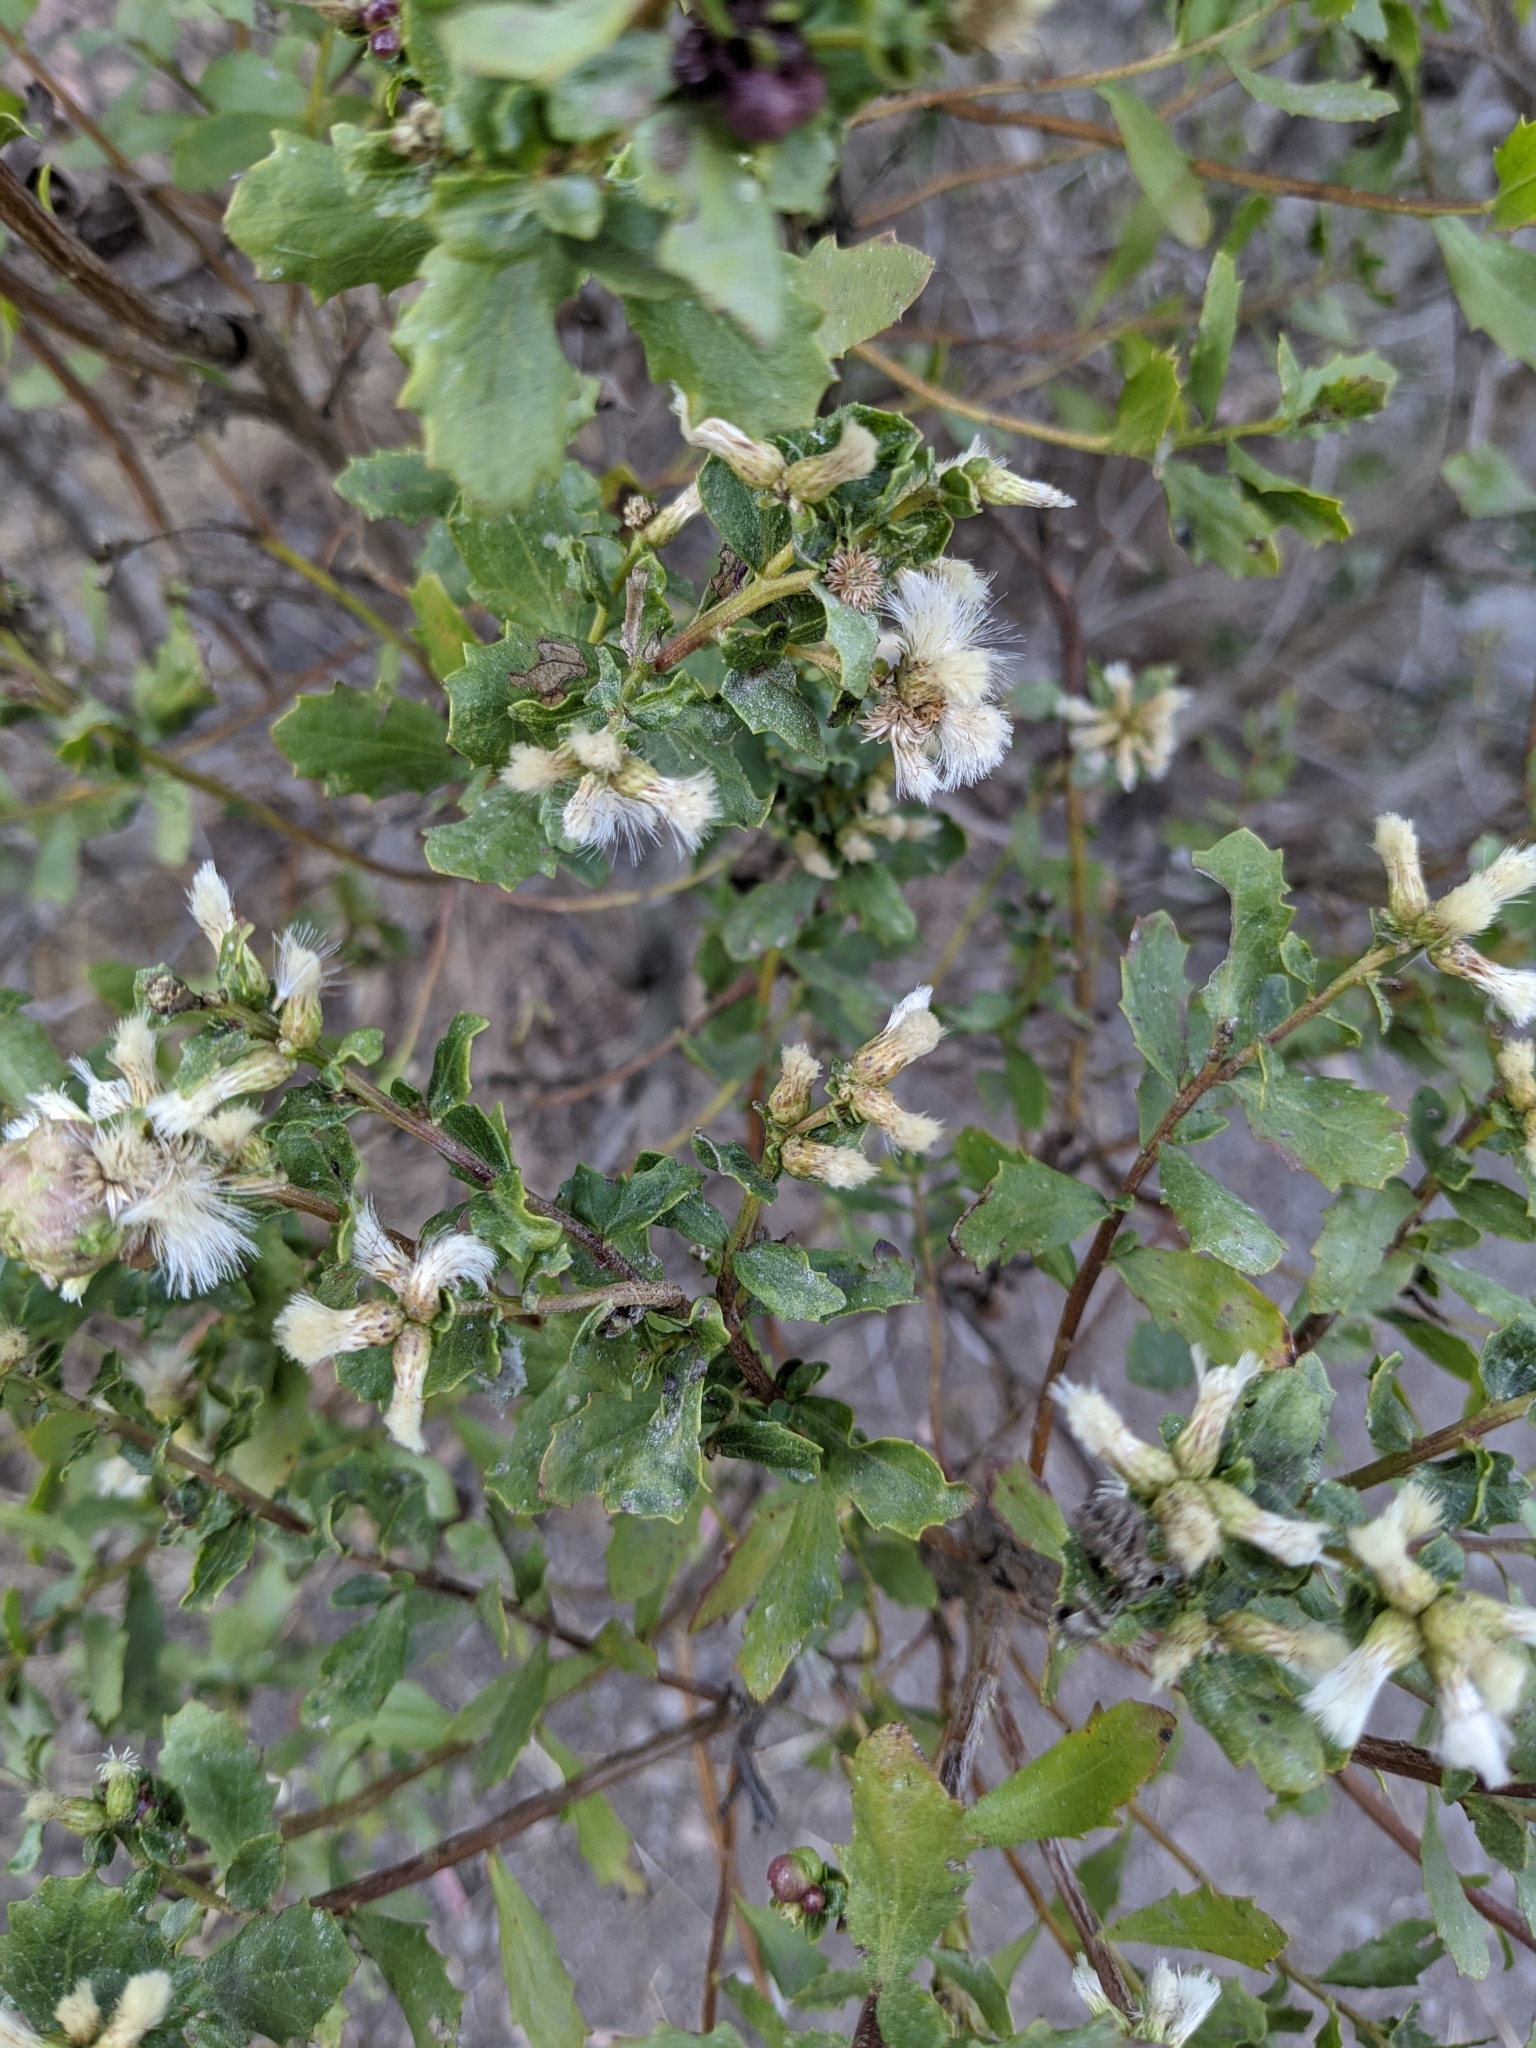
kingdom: Plantae
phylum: Tracheophyta
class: Magnoliopsida
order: Asterales
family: Asteraceae
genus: Baccharis
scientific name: Baccharis pilularis
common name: Coyotebrush
